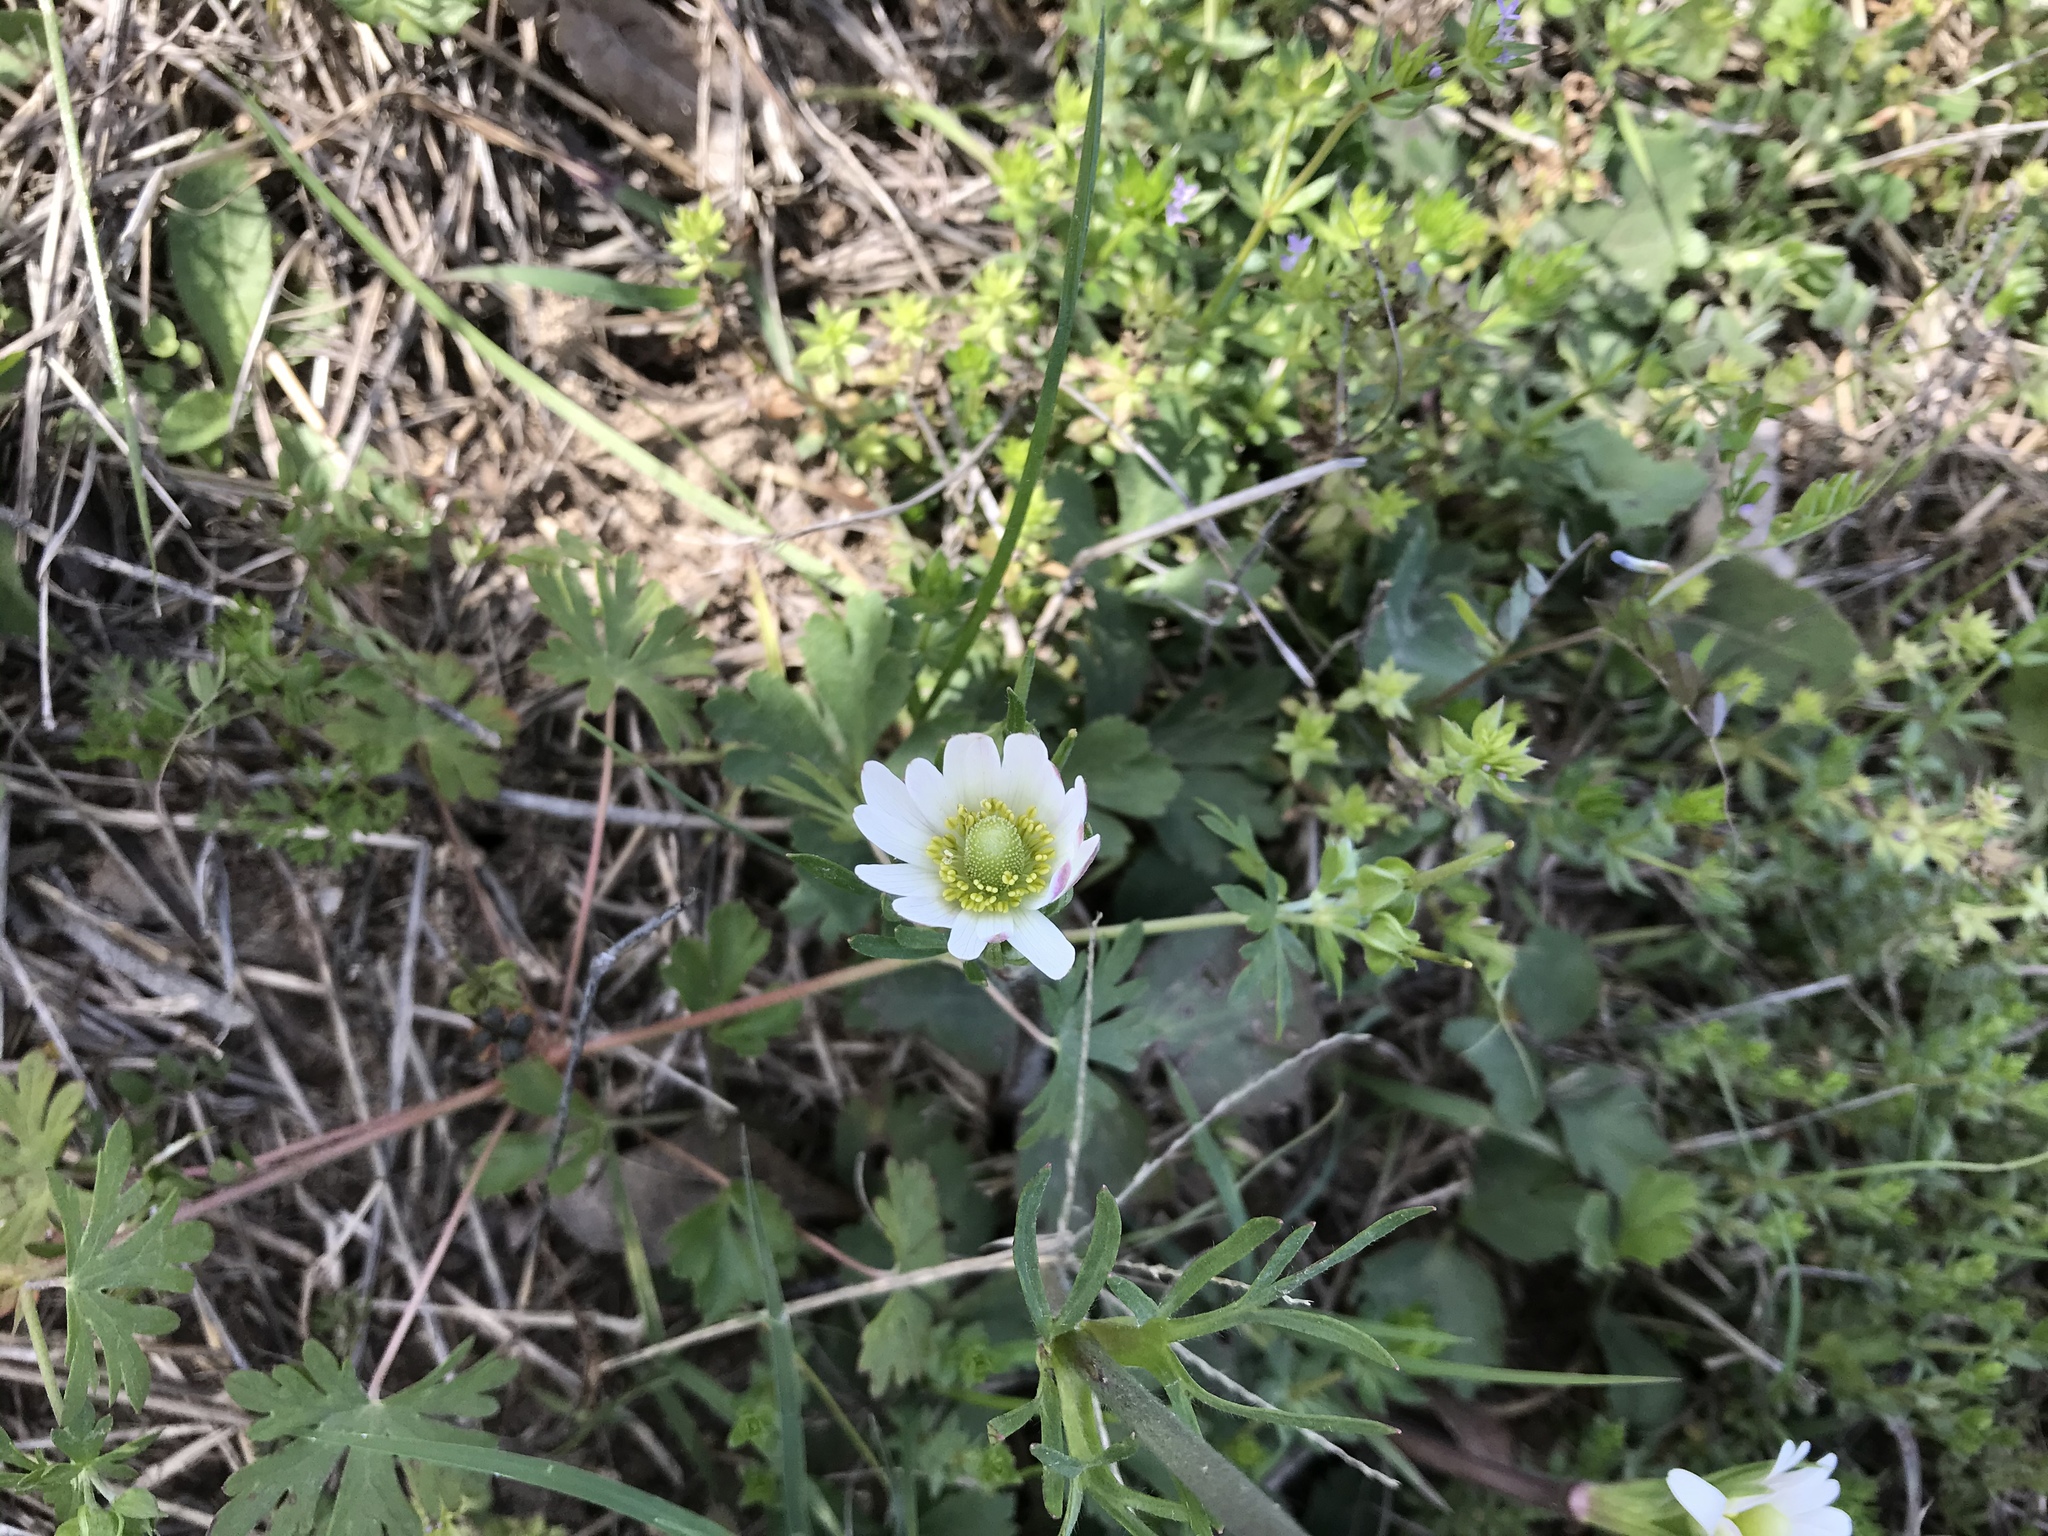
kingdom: Plantae
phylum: Tracheophyta
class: Magnoliopsida
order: Ranunculales
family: Ranunculaceae
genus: Anemone
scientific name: Anemone berlandieri
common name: Ten-petal anemone
